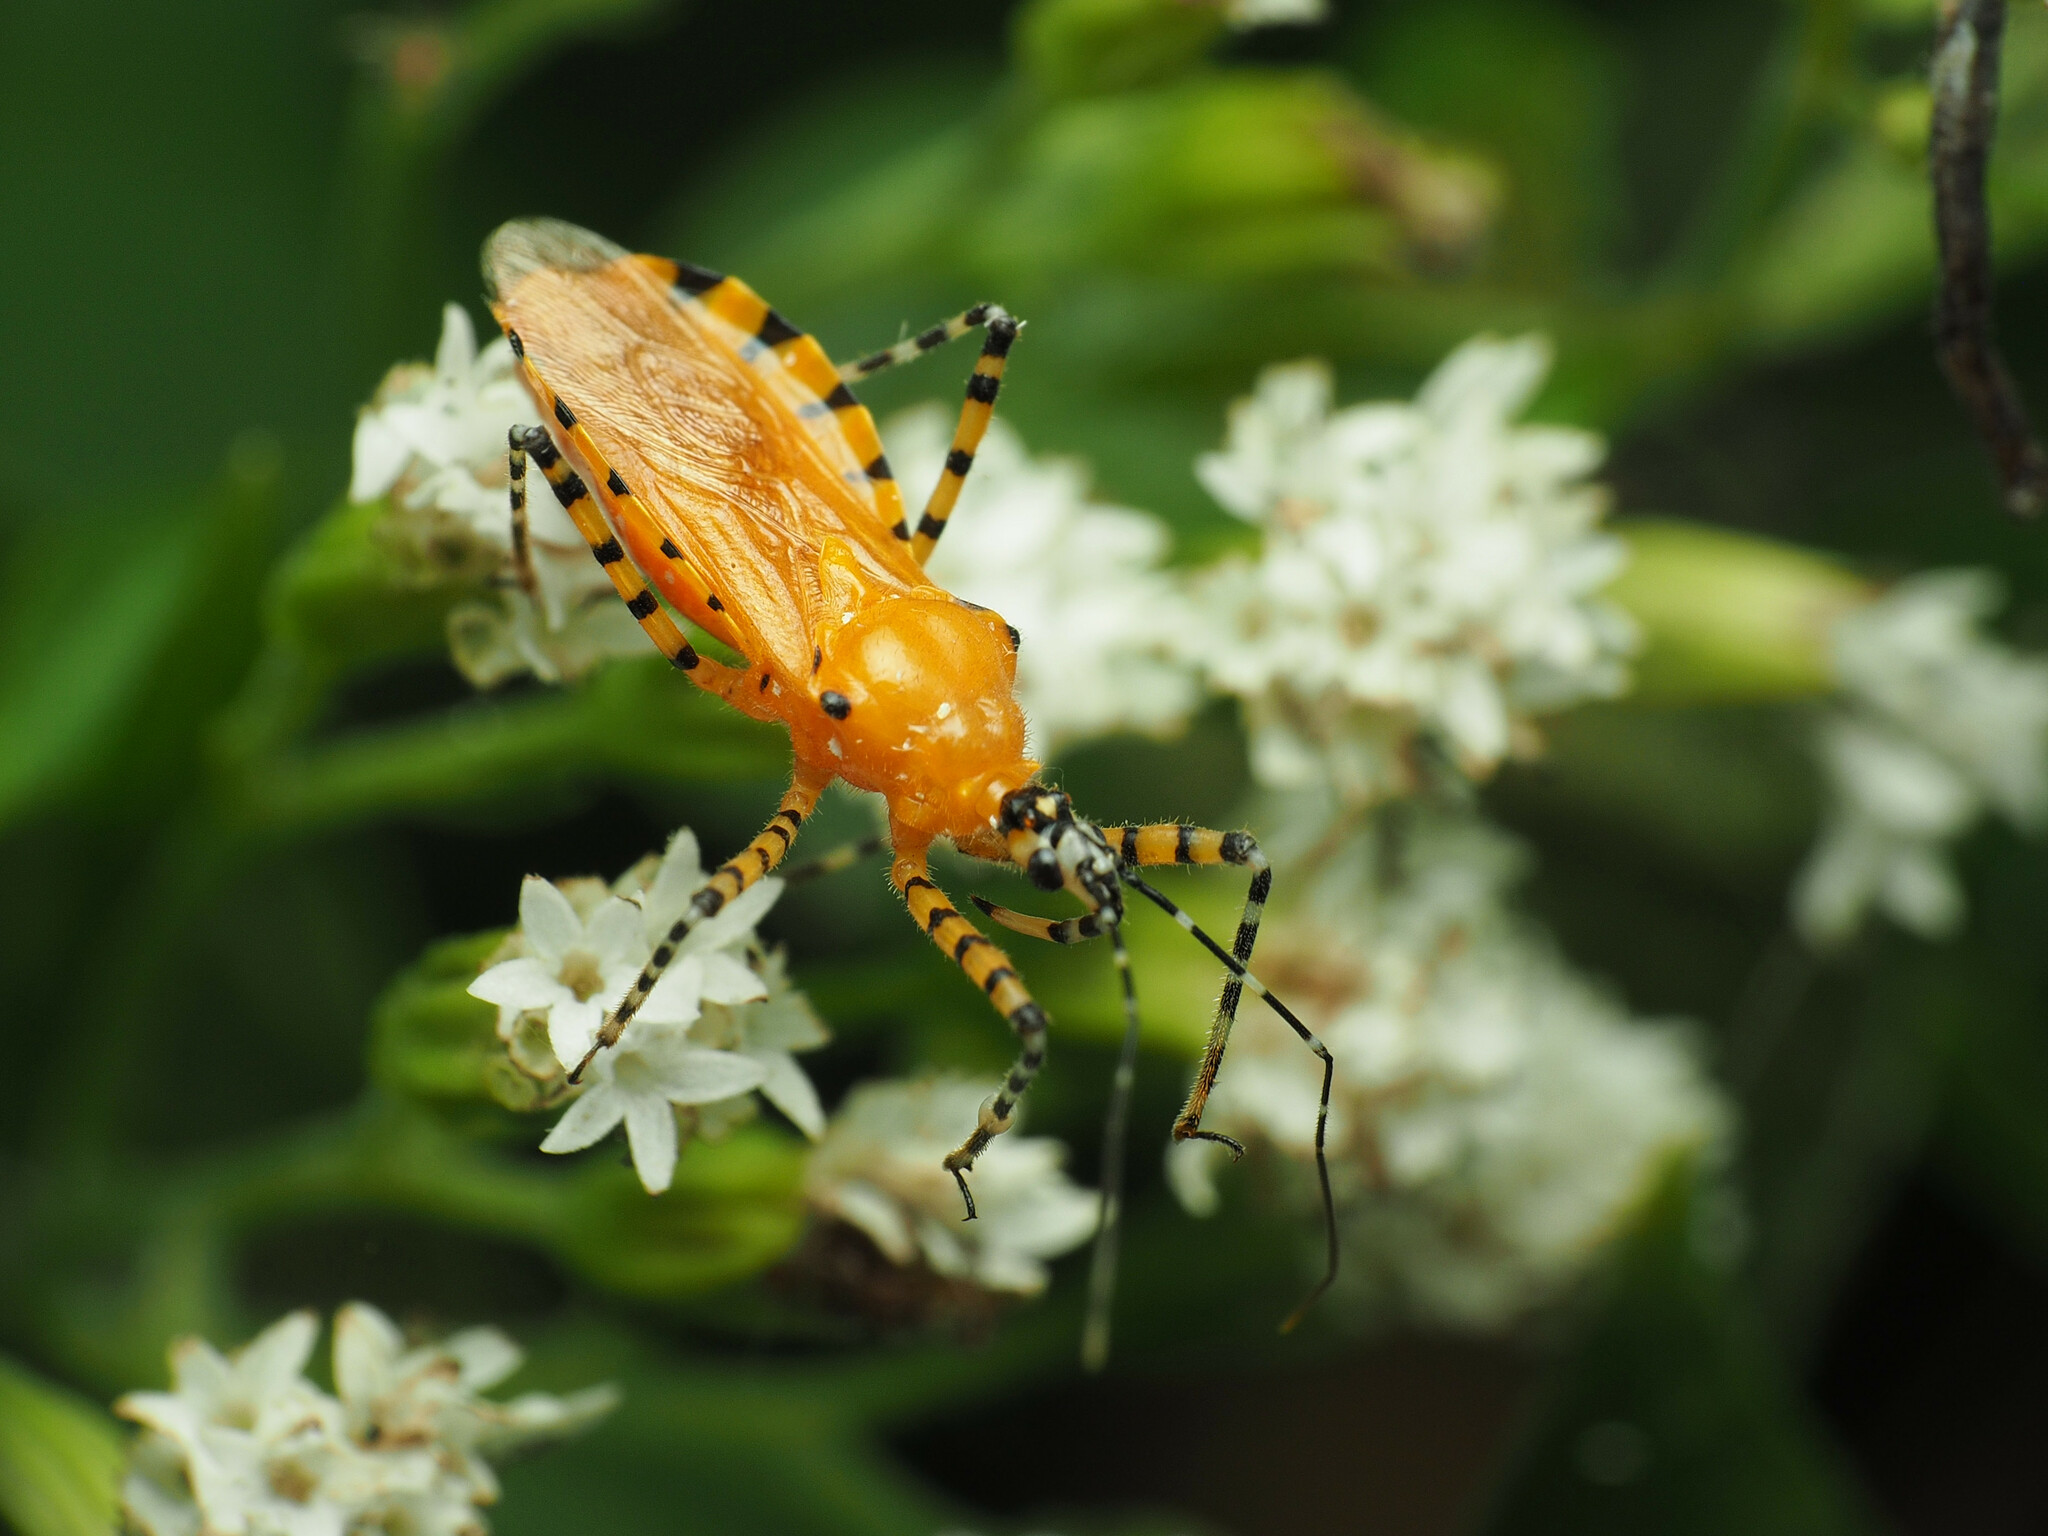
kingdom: Animalia
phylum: Arthropoda
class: Insecta
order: Hemiptera
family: Reduviidae
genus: Pselliopus
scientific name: Pselliopus barberi
